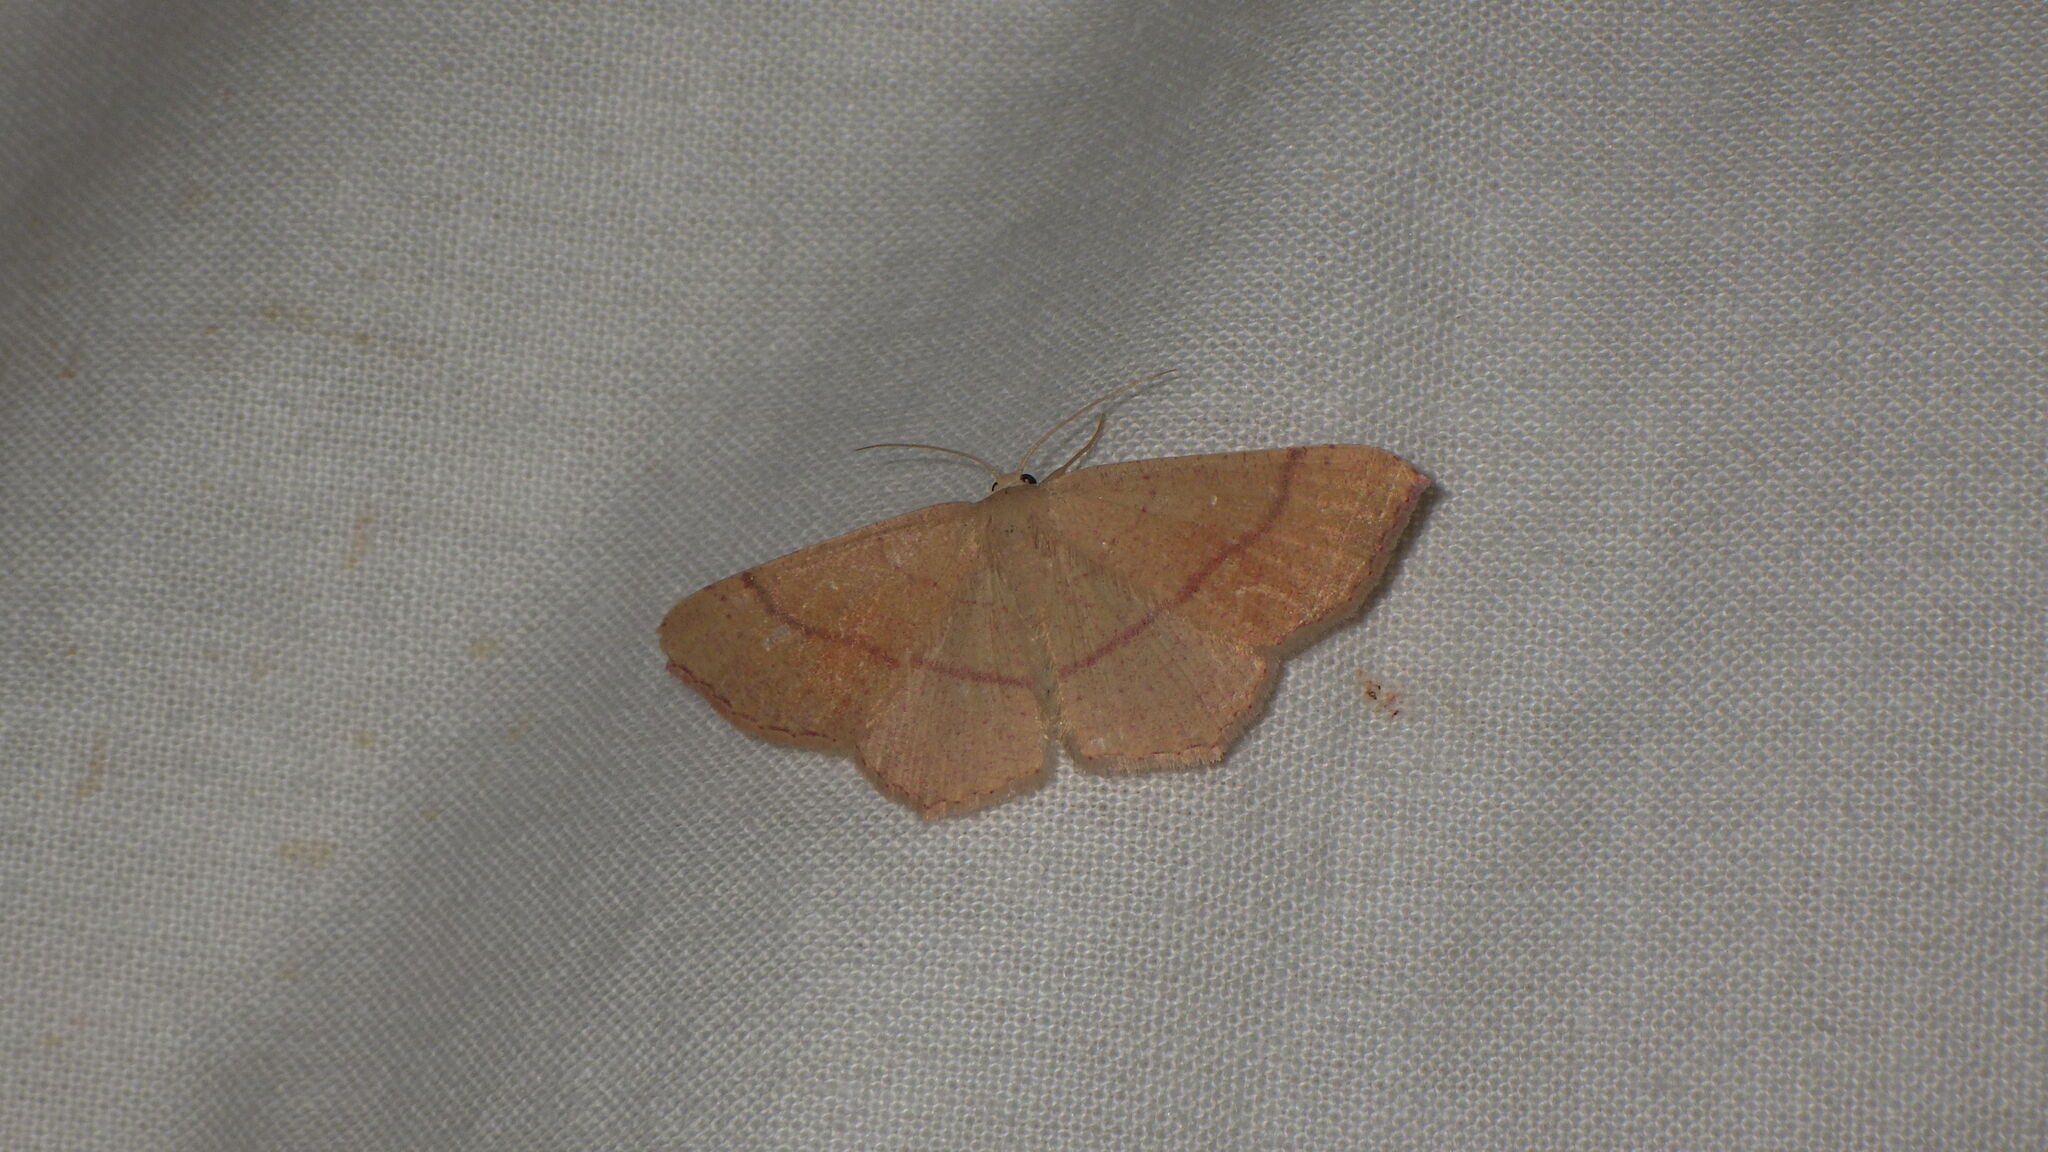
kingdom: Animalia
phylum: Arthropoda
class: Insecta
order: Lepidoptera
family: Geometridae
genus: Cyclophora
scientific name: Cyclophora ruficiliaria
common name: Jersey mocha
